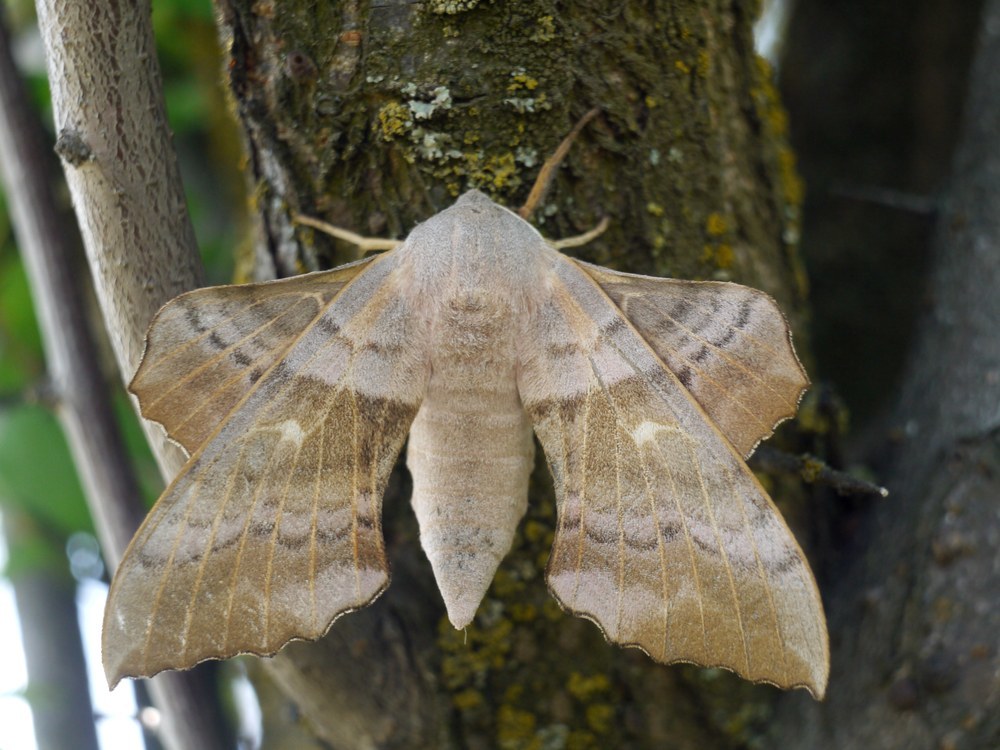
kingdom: Animalia
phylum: Arthropoda
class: Insecta
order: Lepidoptera
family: Sphingidae
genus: Laothoe
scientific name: Laothoe populi
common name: Poplar hawk-moth
